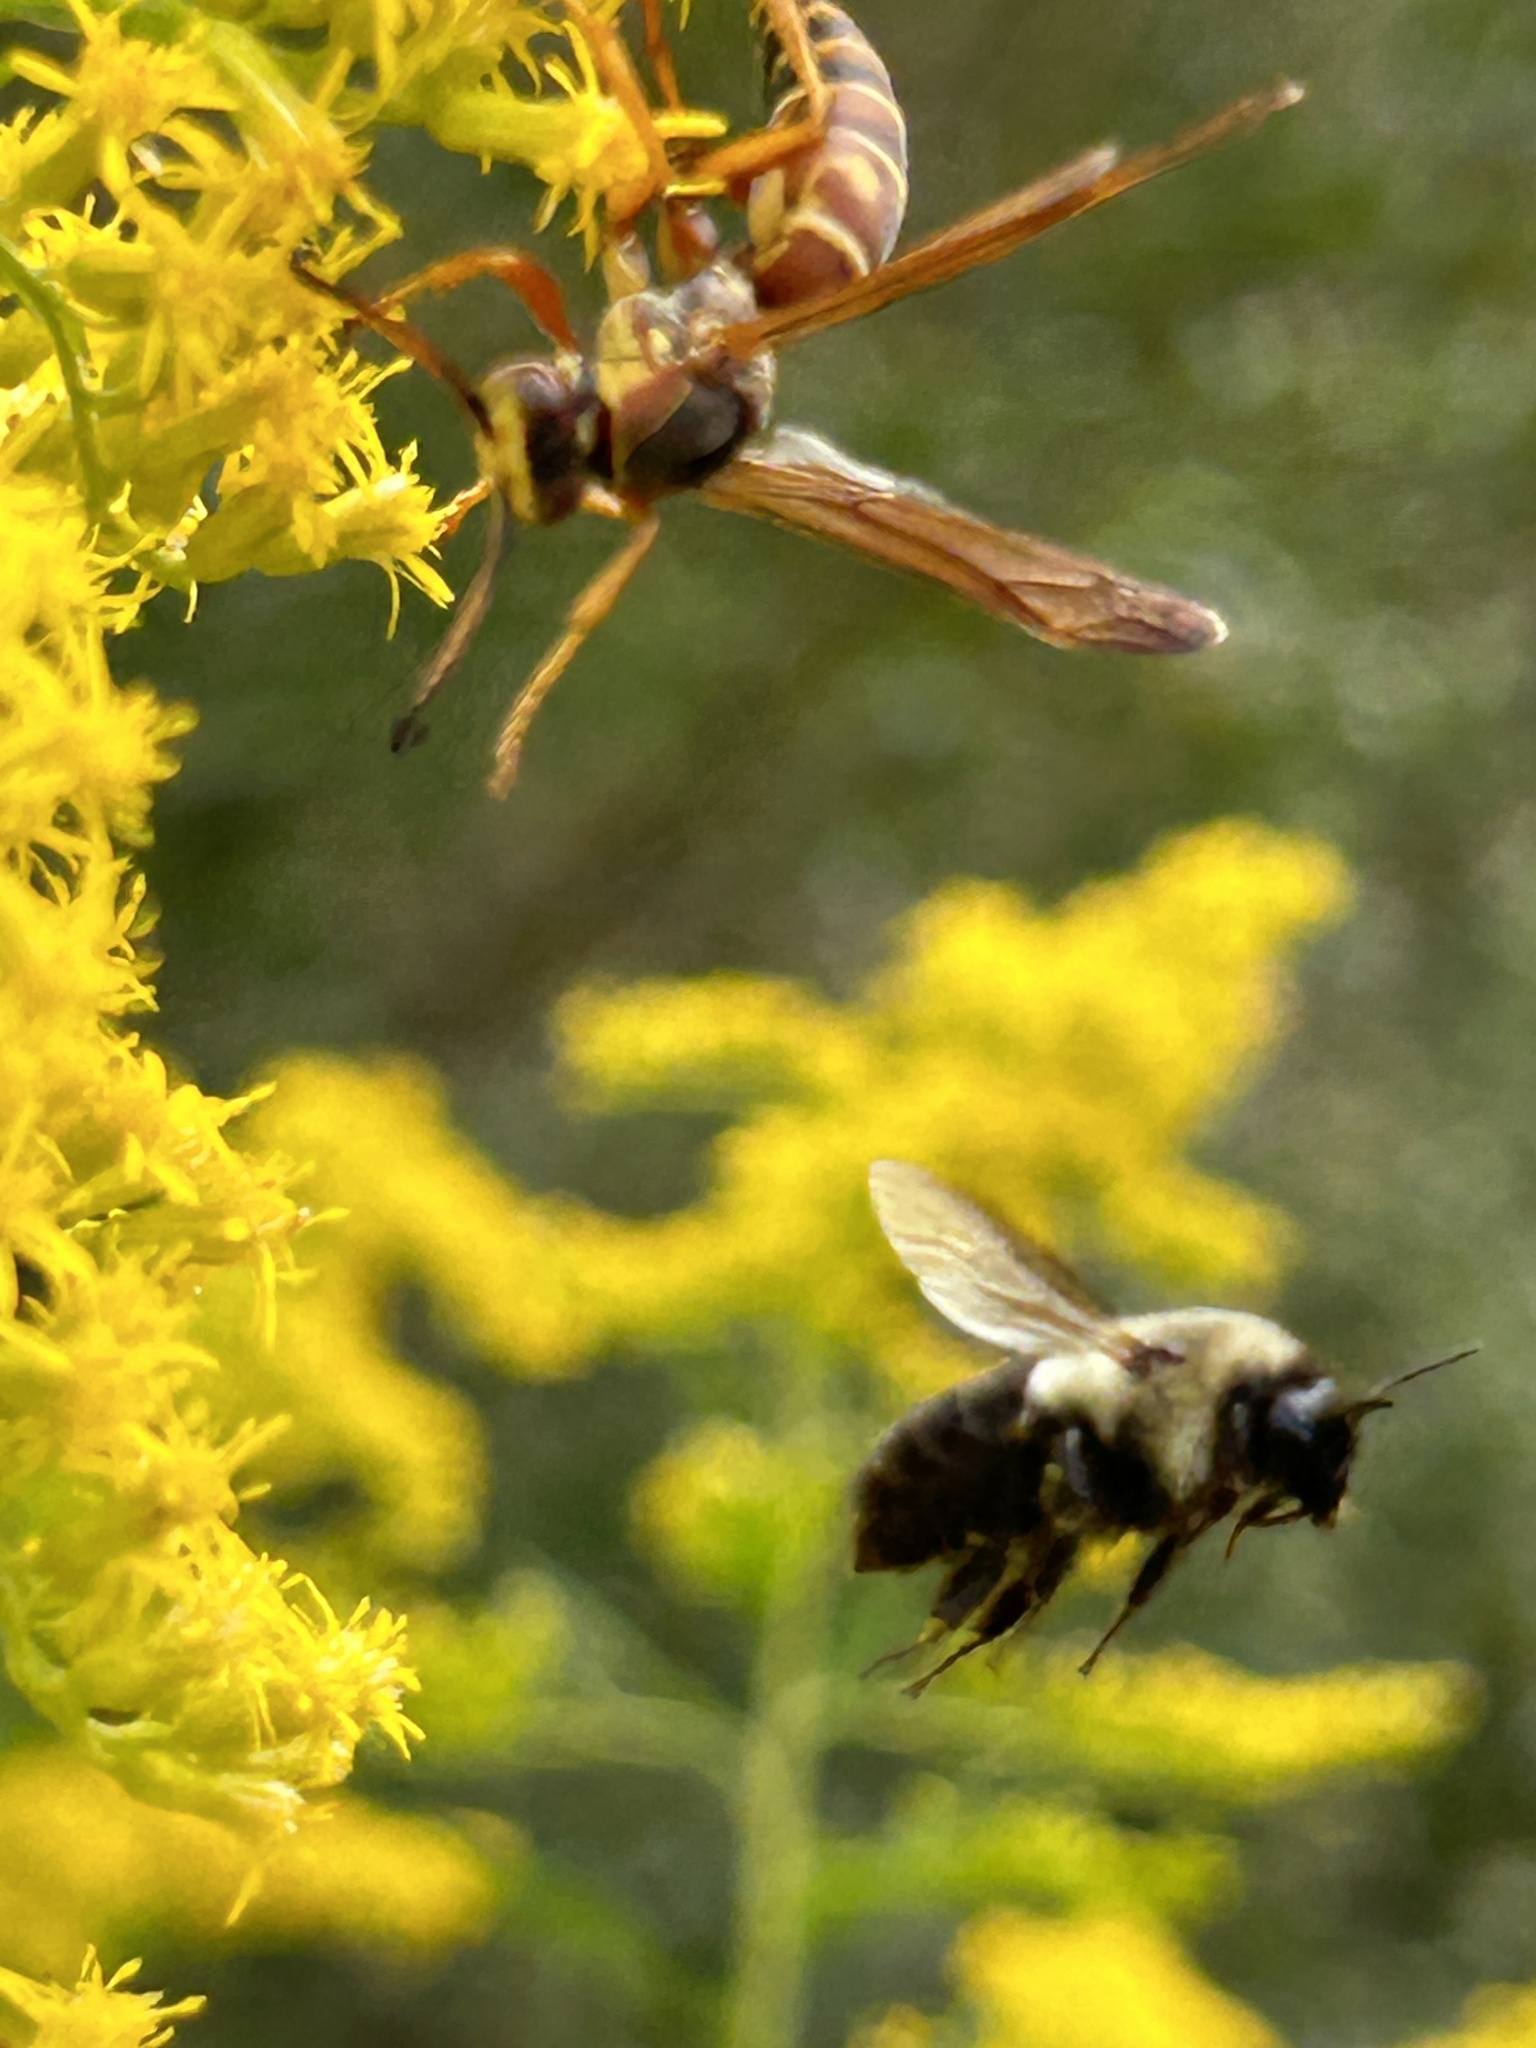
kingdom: Animalia
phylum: Arthropoda
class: Insecta
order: Hymenoptera
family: Apidae
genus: Bombus
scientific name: Bombus impatiens
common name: Common eastern bumble bee
